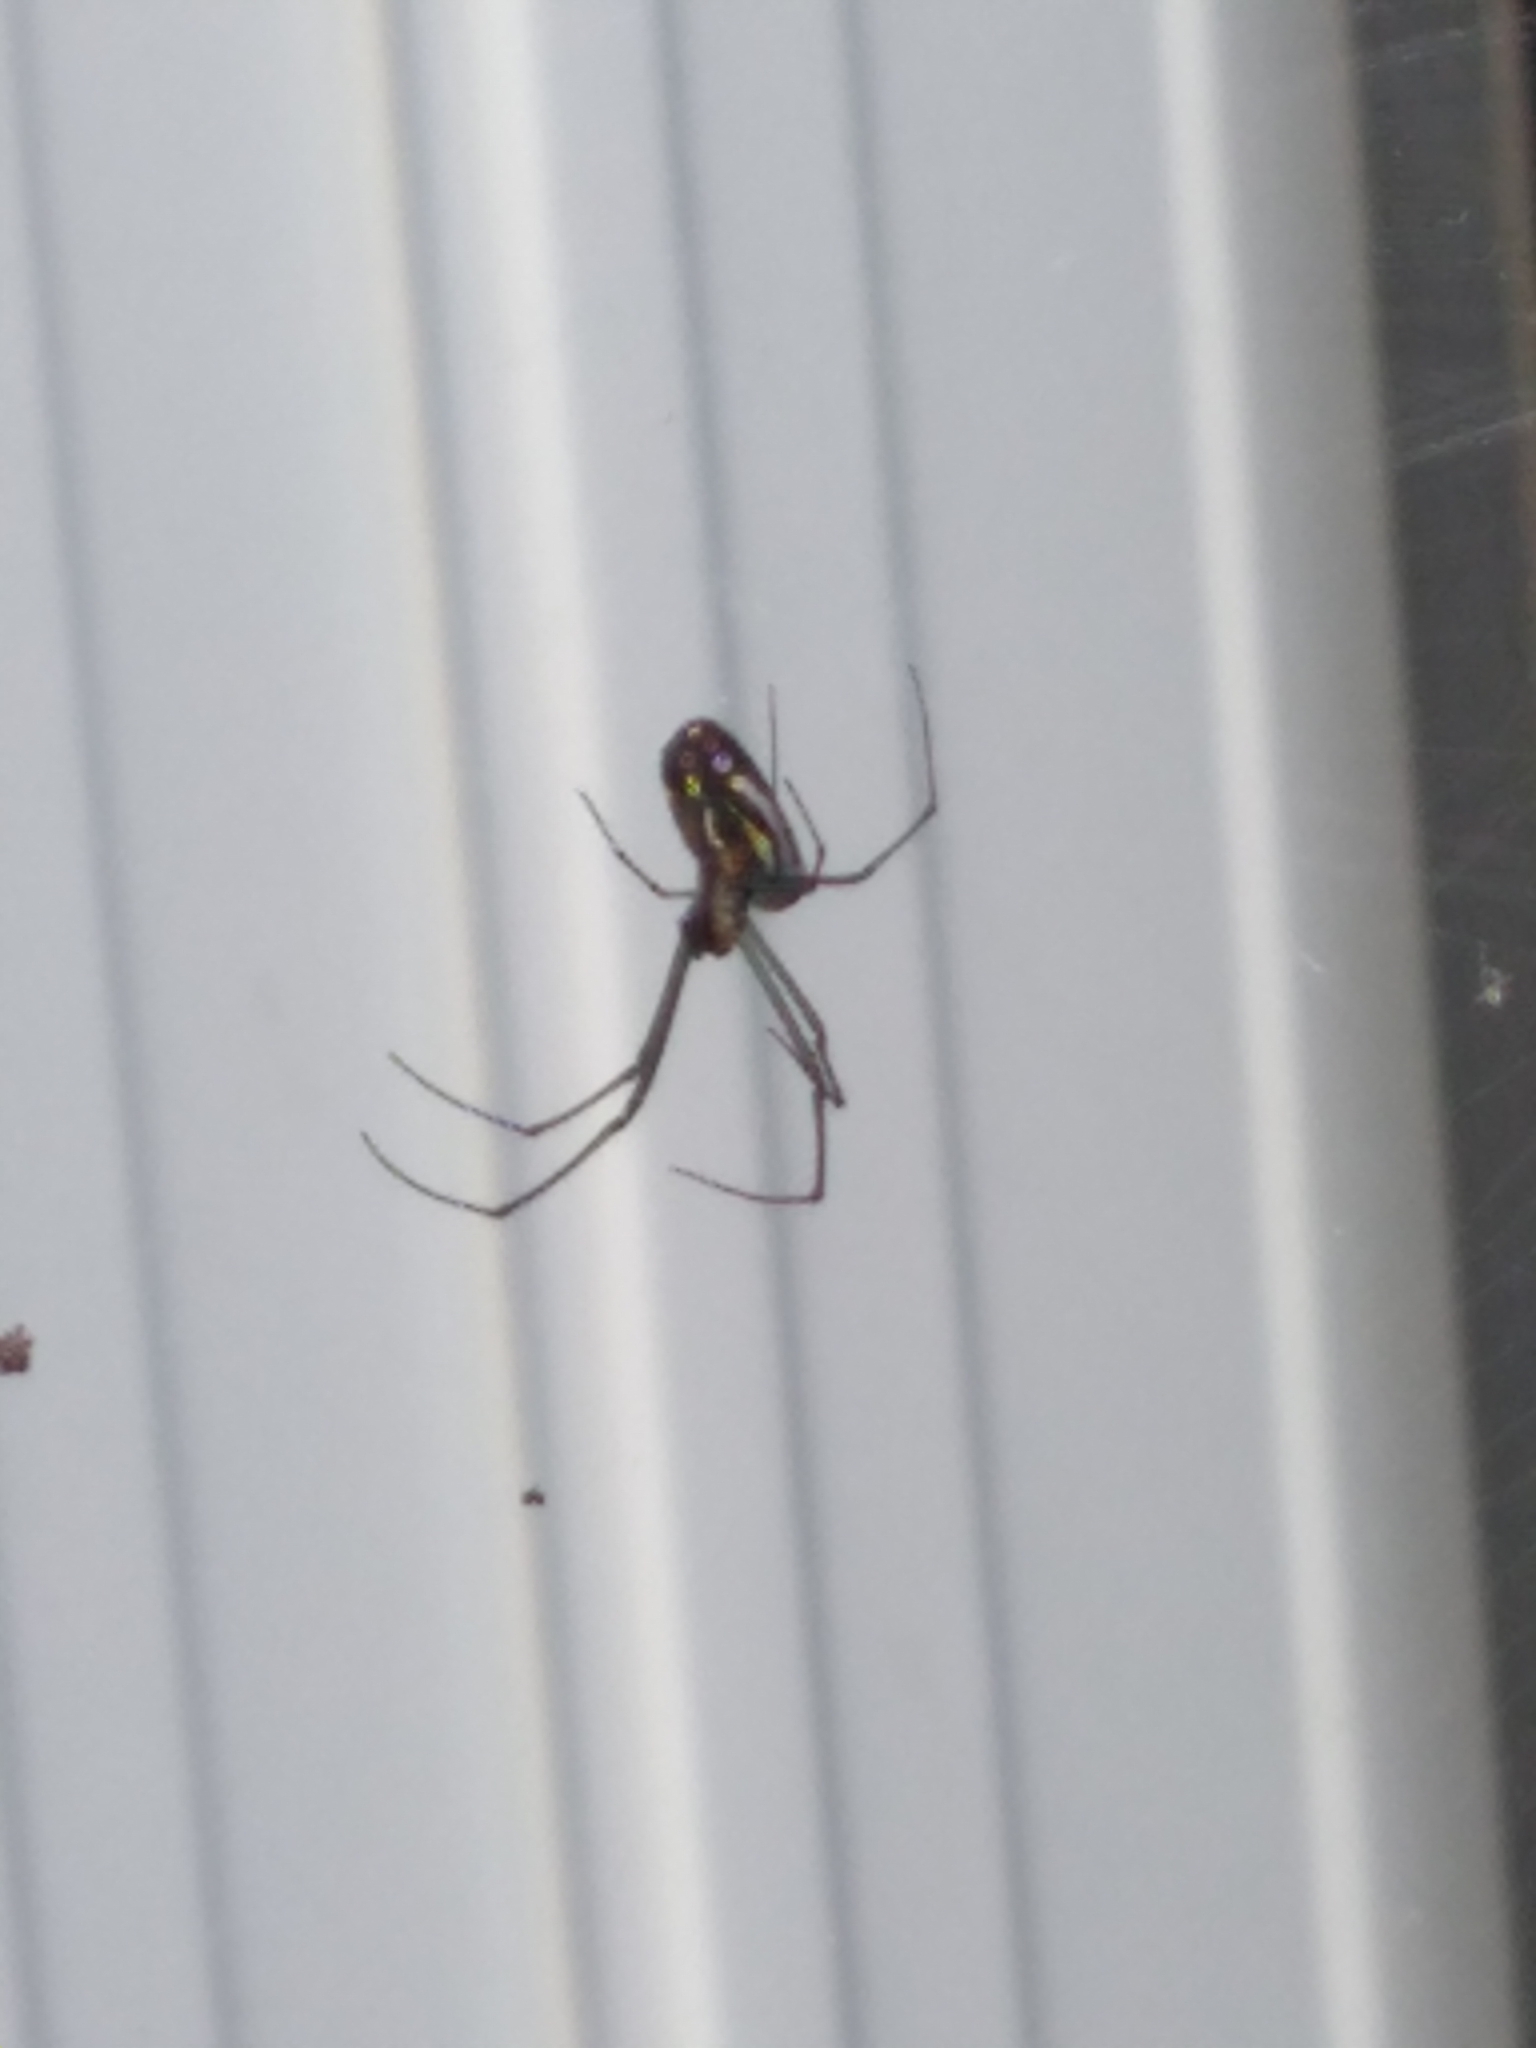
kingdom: Animalia
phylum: Arthropoda
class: Arachnida
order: Araneae
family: Tetragnathidae
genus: Leucauge
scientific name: Leucauge argyra
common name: Longjawed orb weavers
